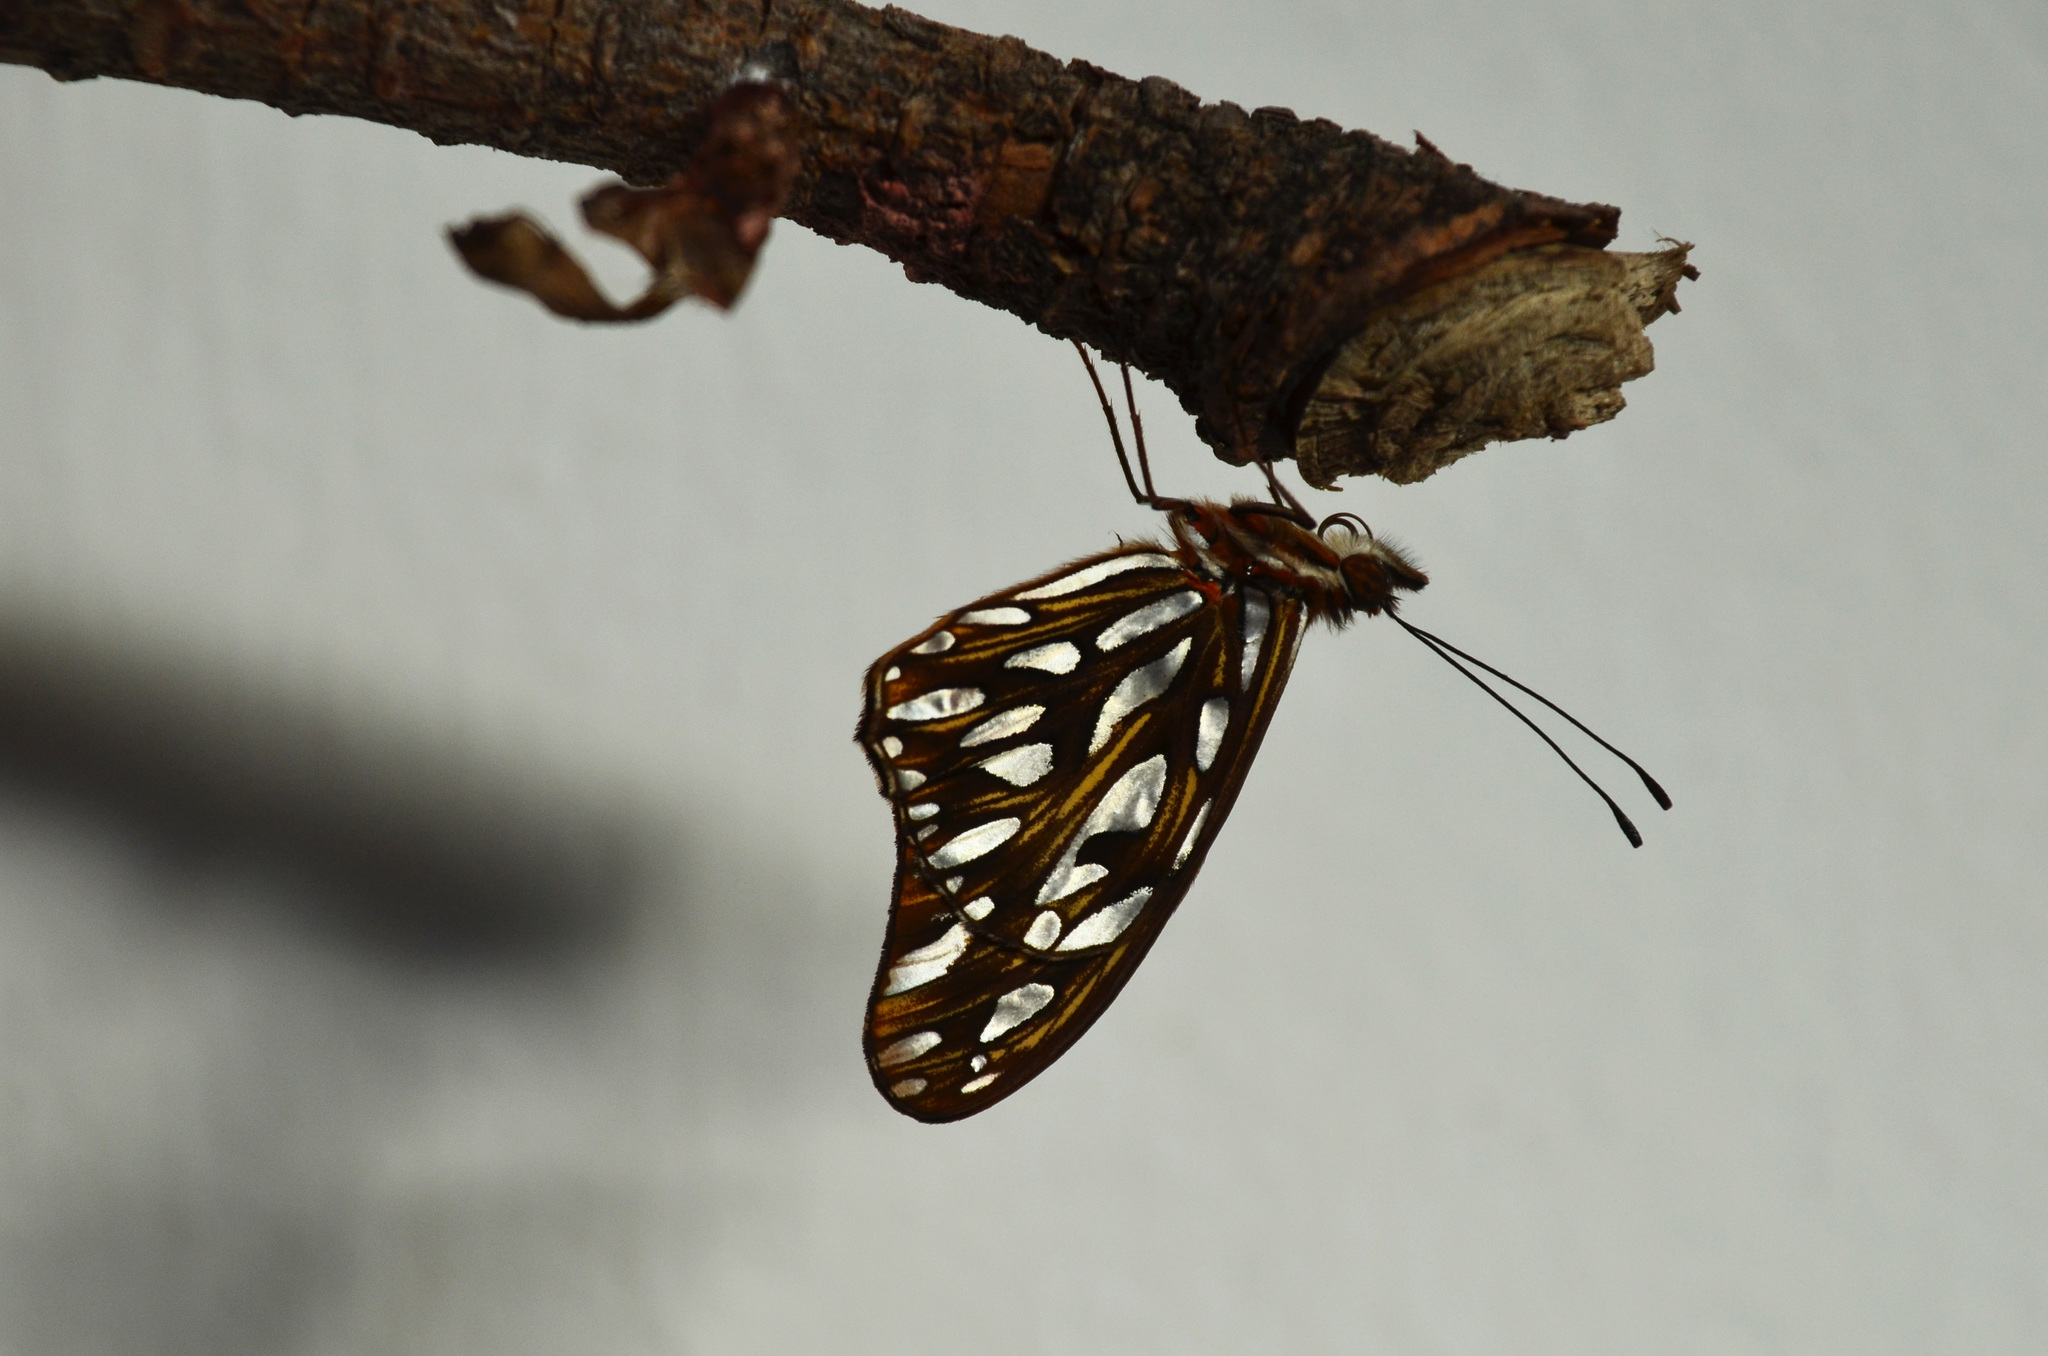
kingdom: Animalia
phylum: Arthropoda
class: Insecta
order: Lepidoptera
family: Nymphalidae
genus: Dione
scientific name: Dione vanillae
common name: Gulf fritillary
